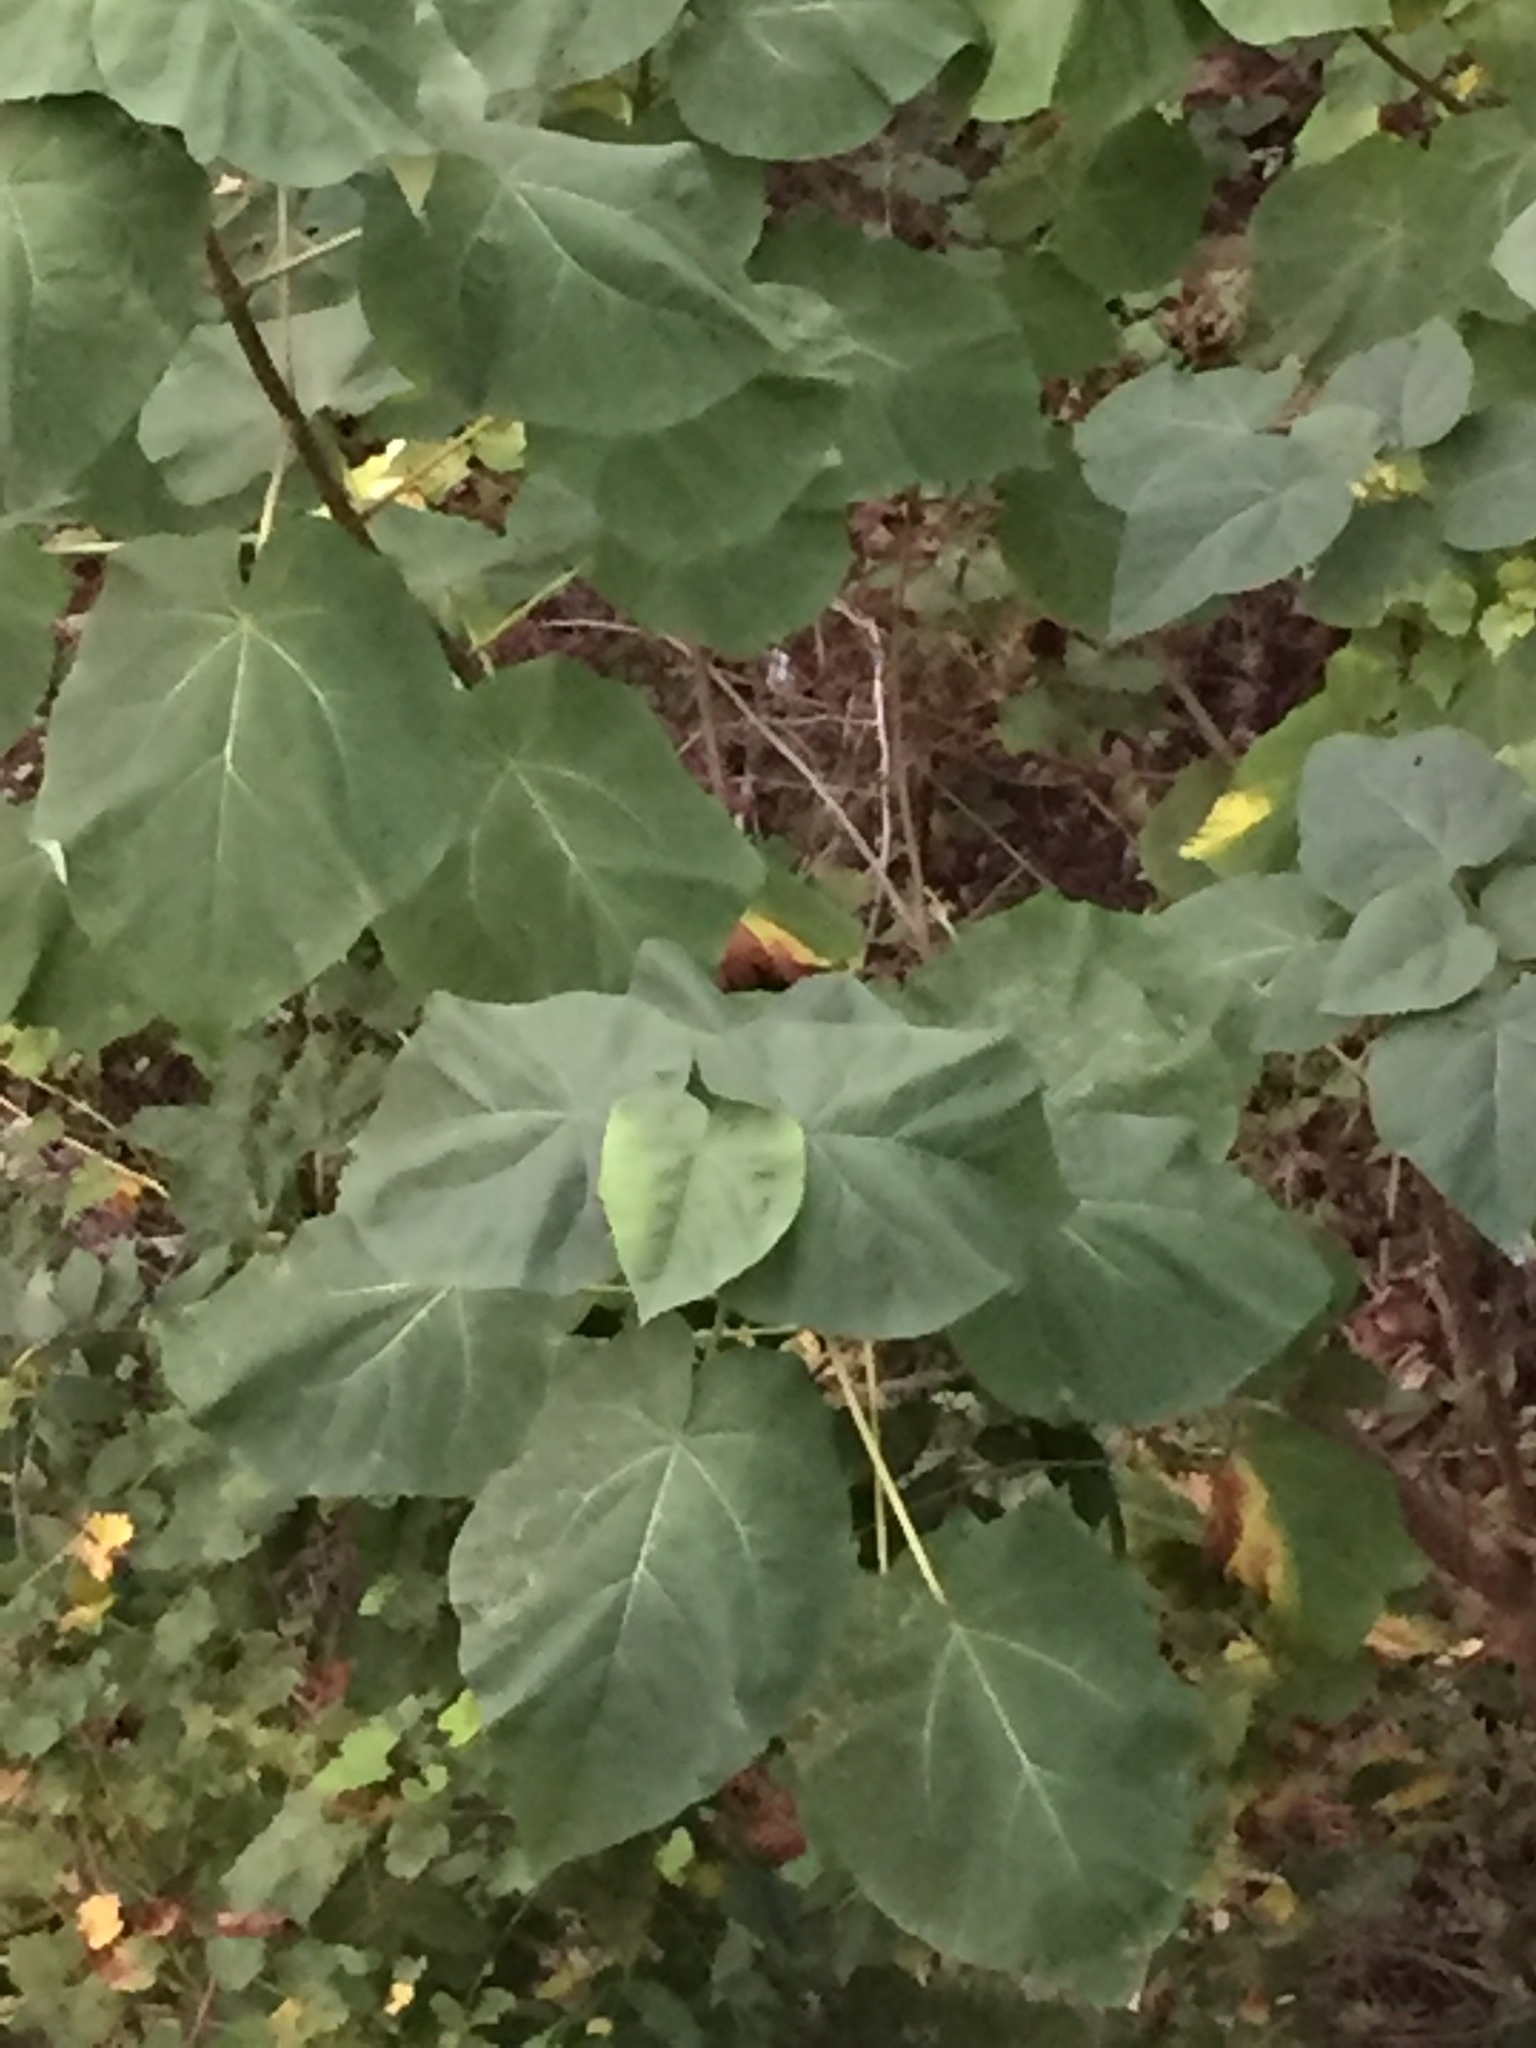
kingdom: Plantae
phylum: Tracheophyta
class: Magnoliopsida
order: Lamiales
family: Paulowniaceae
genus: Paulownia
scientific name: Paulownia tomentosa
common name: Foxglove-tree
